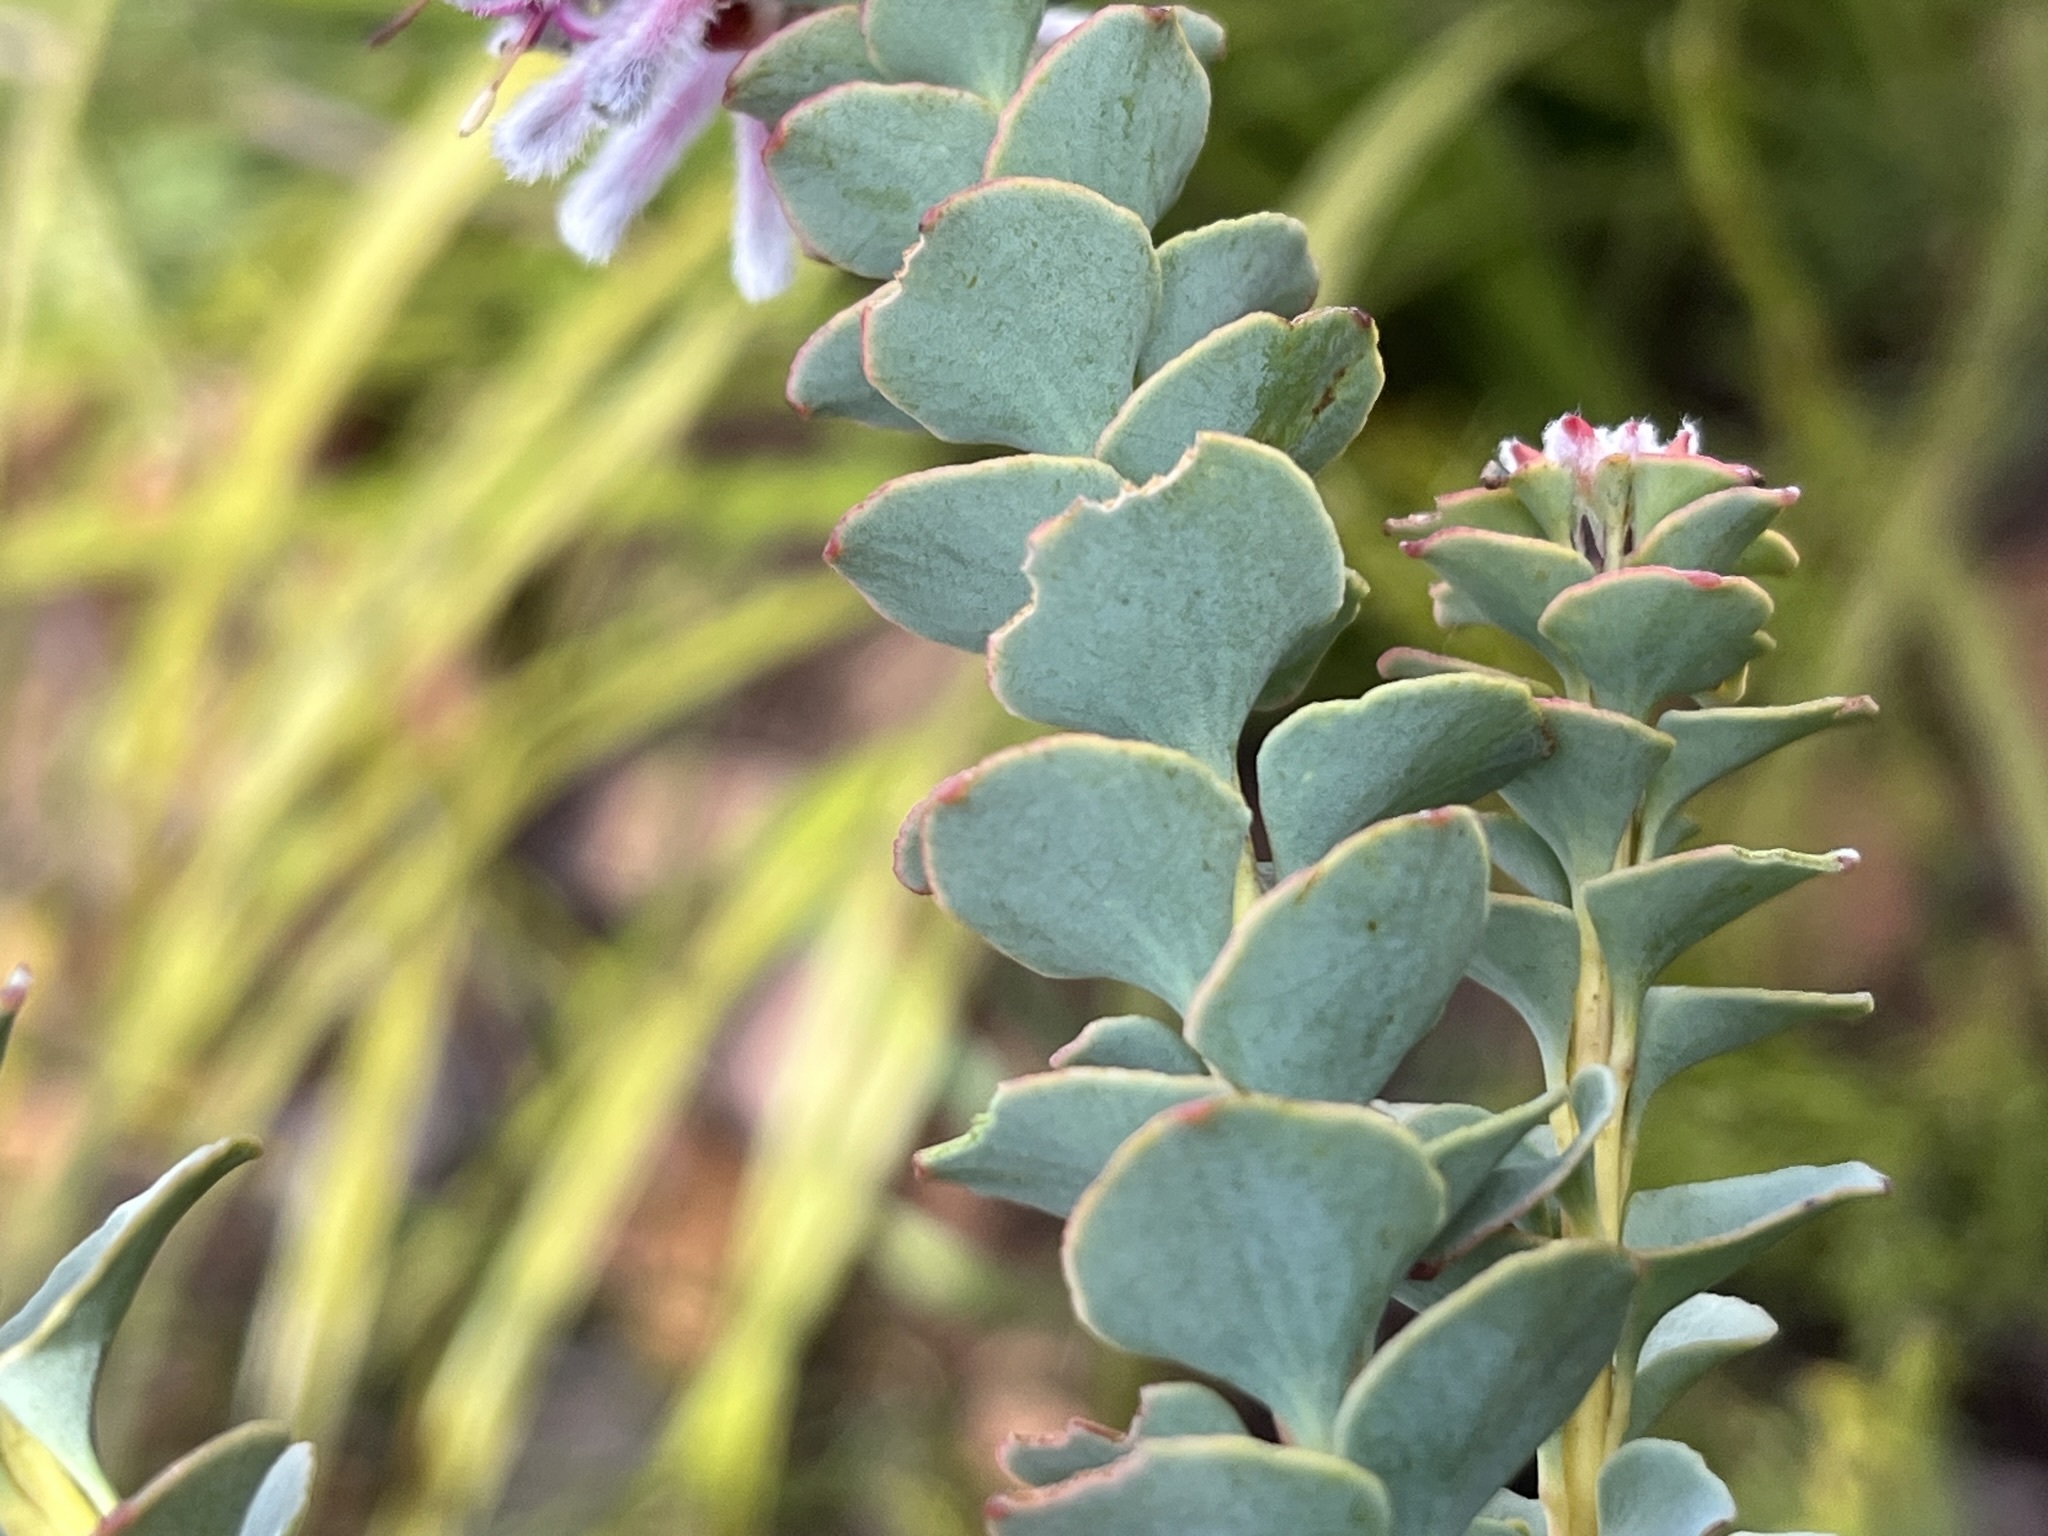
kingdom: Plantae
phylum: Tracheophyta
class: Magnoliopsida
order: Proteales
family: Proteaceae
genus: Paranomus
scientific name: Paranomus spathulatus
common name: Langeberg sceptre
